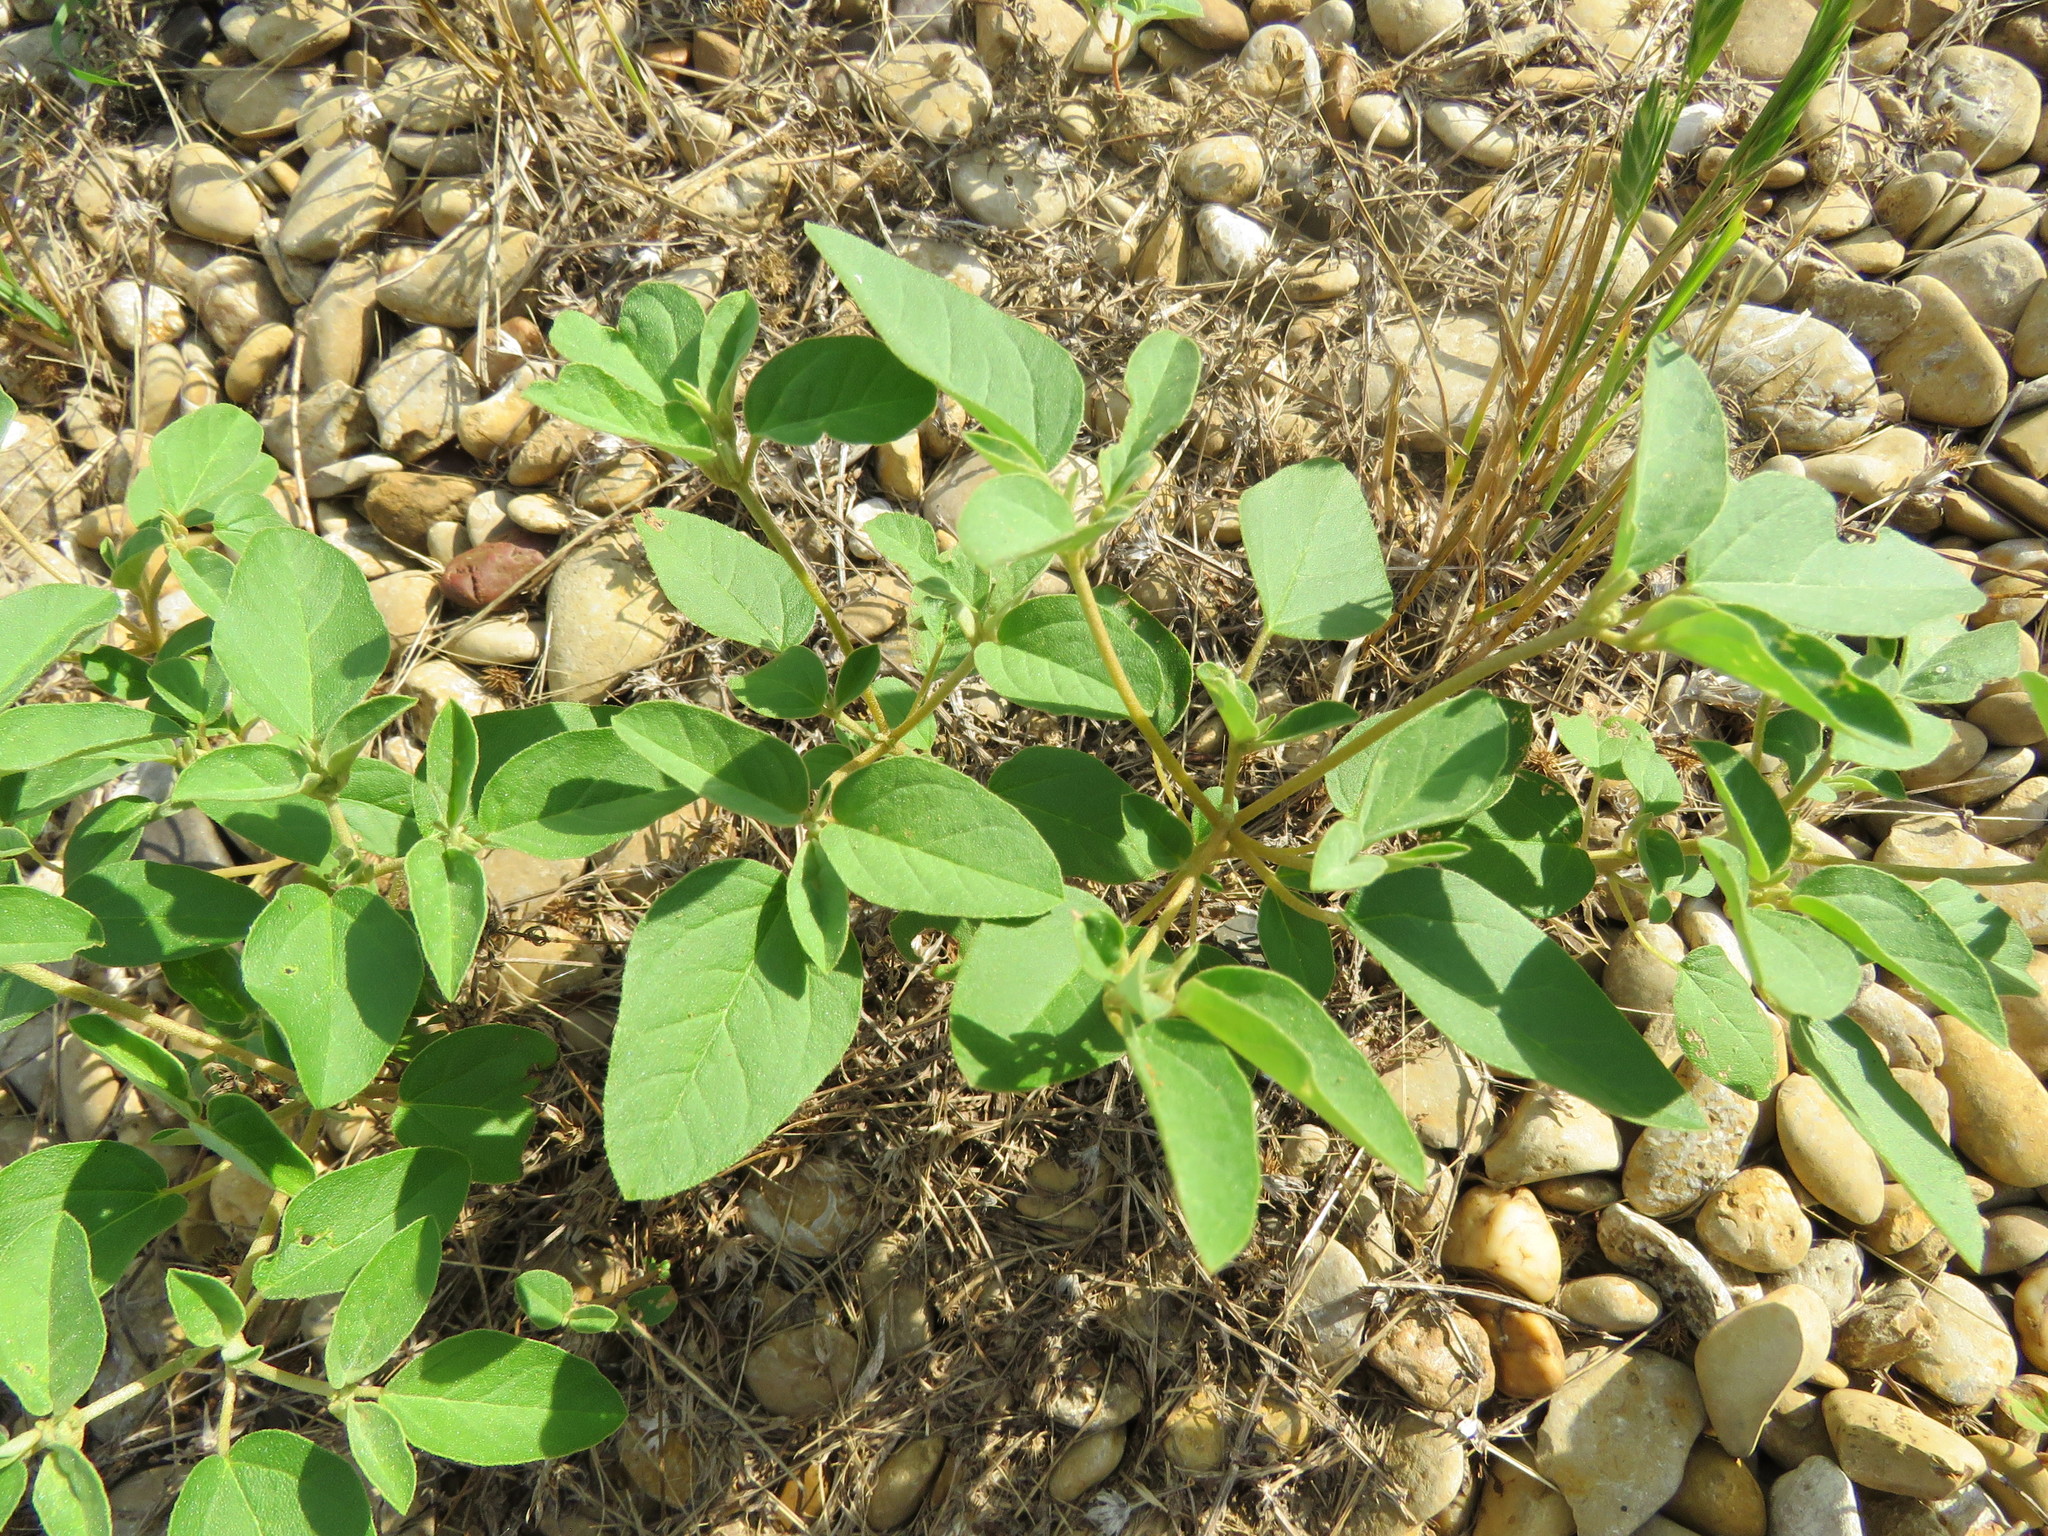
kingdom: Plantae
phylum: Tracheophyta
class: Magnoliopsida
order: Malpighiales
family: Euphorbiaceae
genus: Croton
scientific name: Croton monanthogynus
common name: One-seed croton
